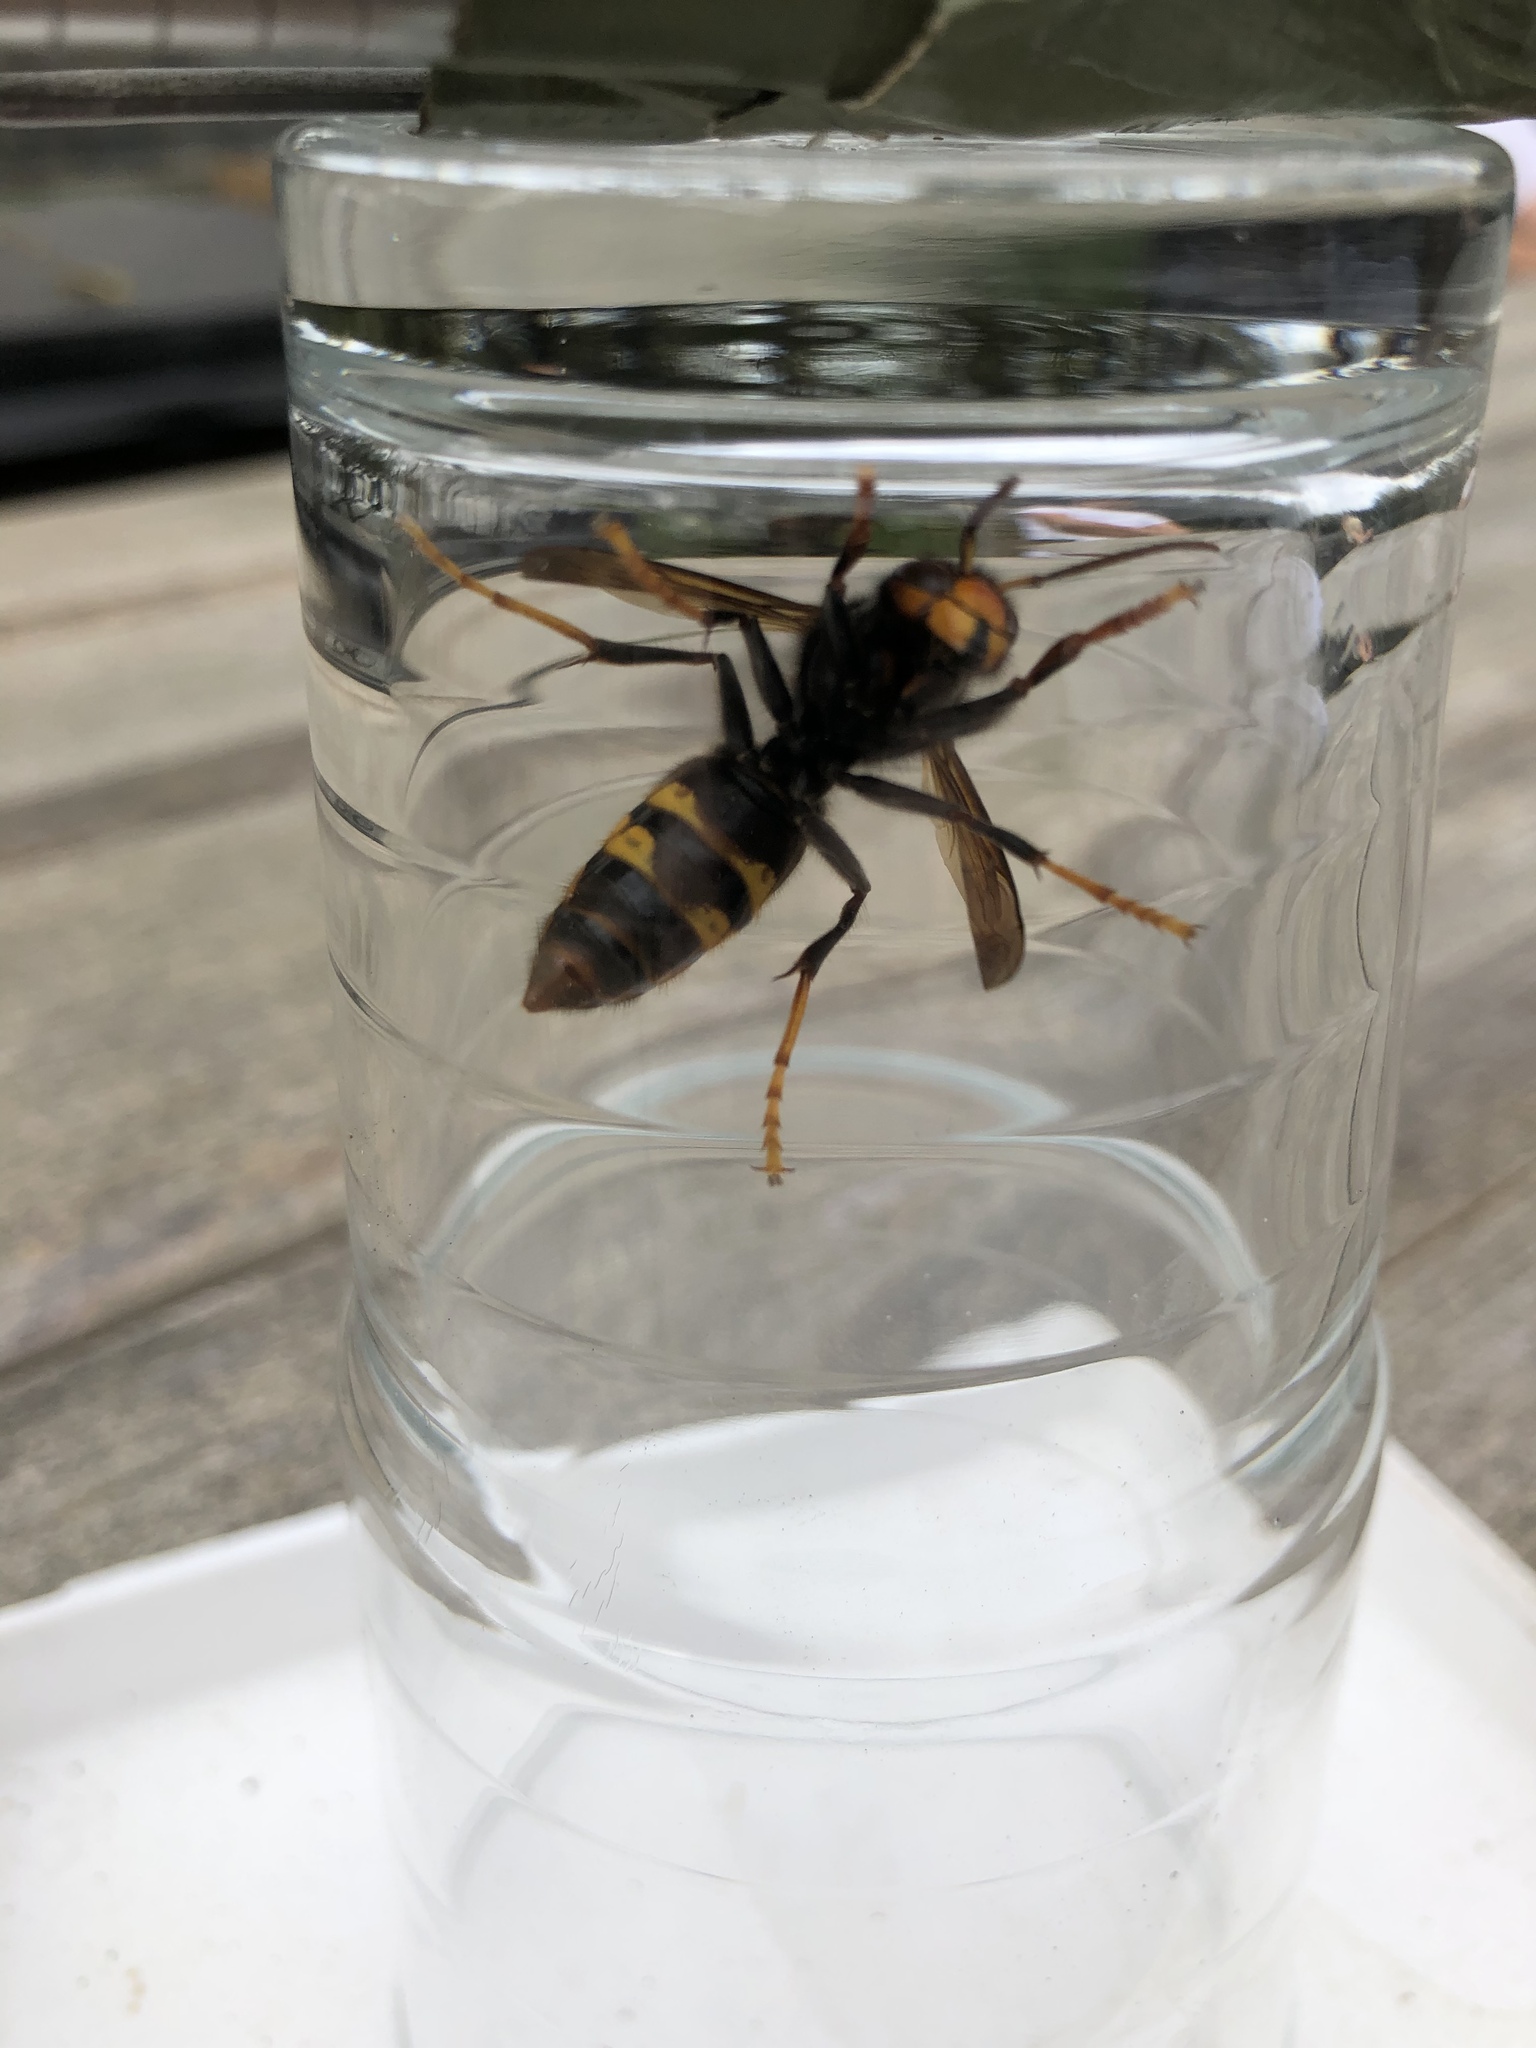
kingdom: Animalia
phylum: Arthropoda
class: Insecta
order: Hymenoptera
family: Vespidae
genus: Vespa
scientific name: Vespa velutina
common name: Asian hornet
